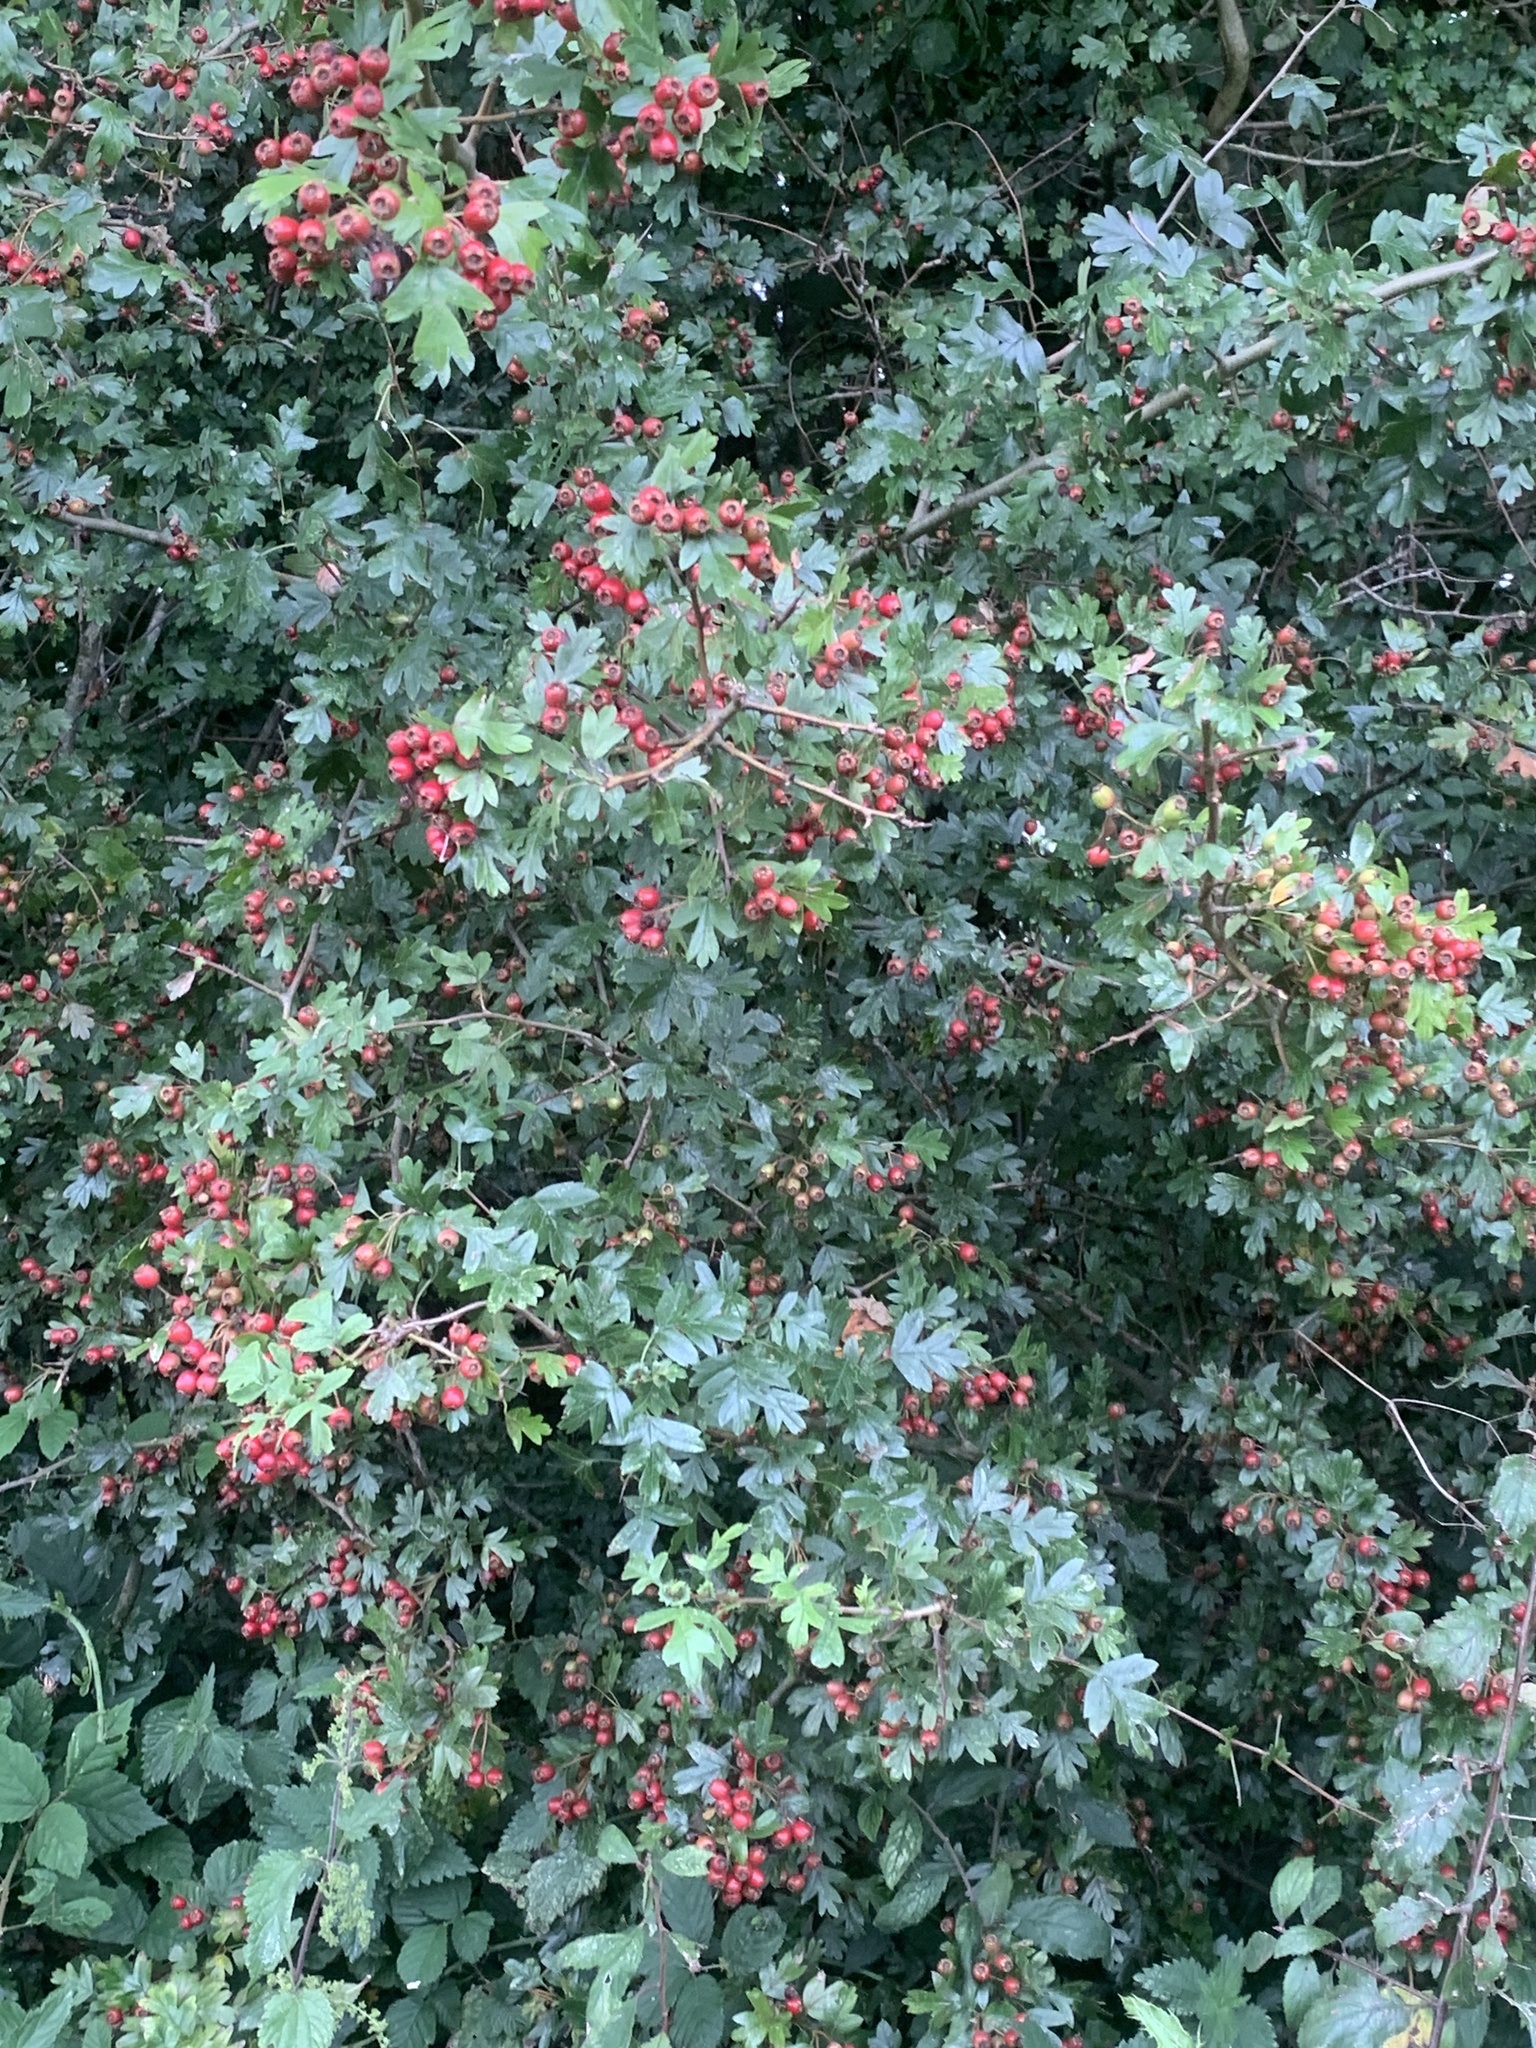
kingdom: Plantae
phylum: Tracheophyta
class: Magnoliopsida
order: Rosales
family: Rosaceae
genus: Crataegus
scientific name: Crataegus monogyna
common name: Hawthorn
